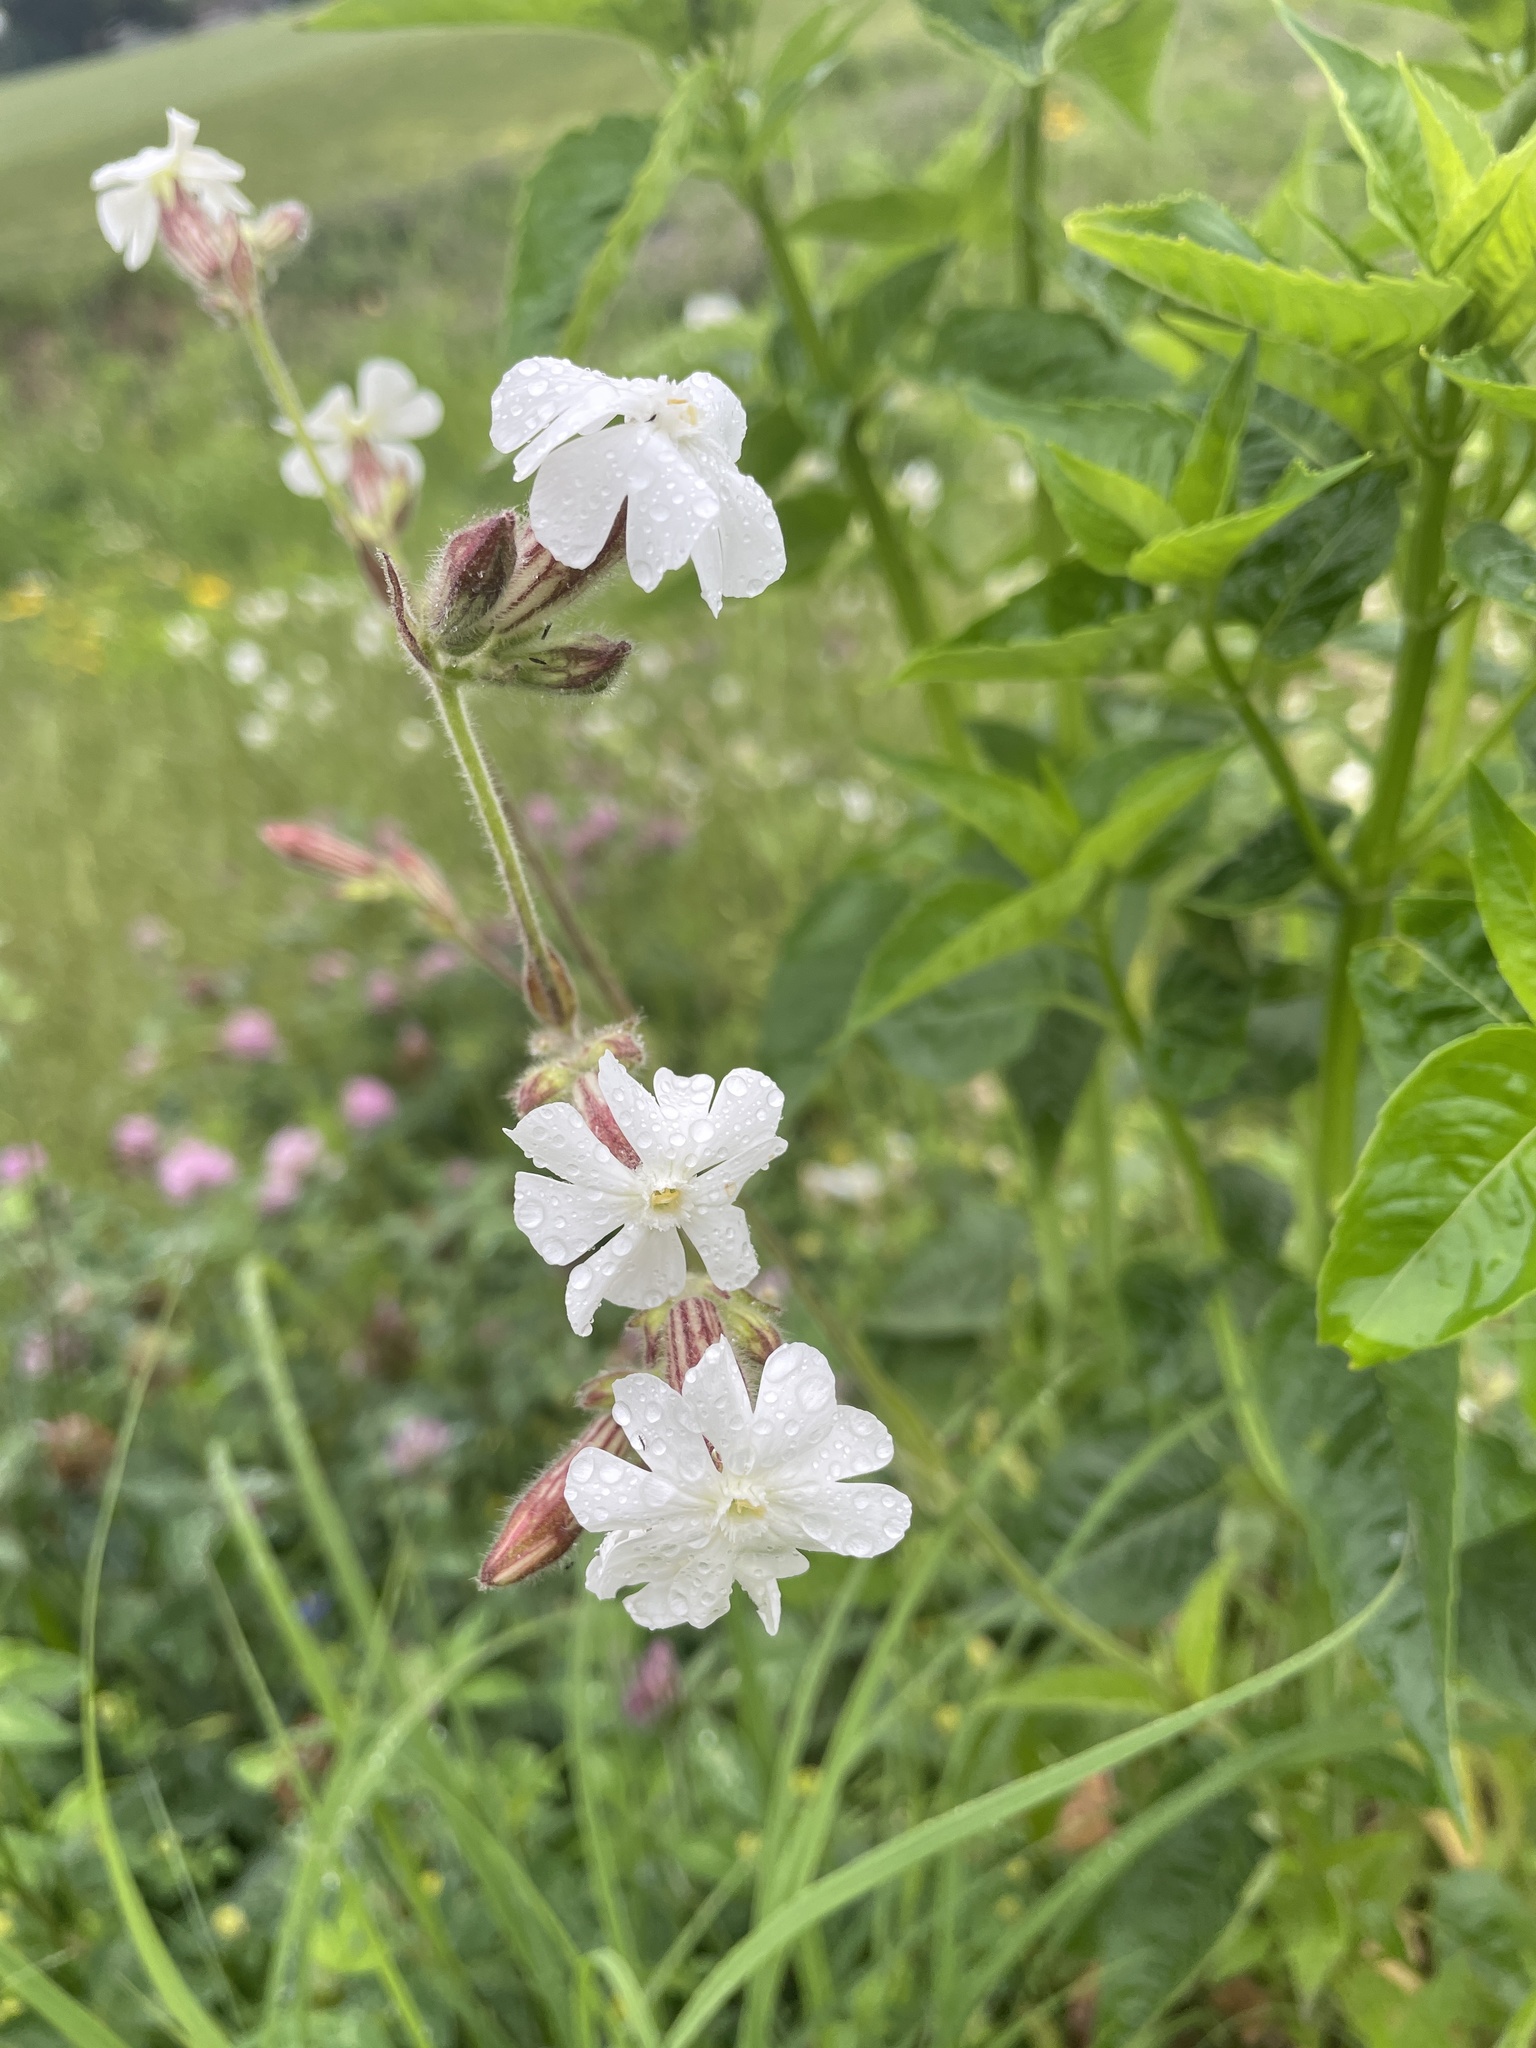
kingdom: Plantae
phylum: Tracheophyta
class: Magnoliopsida
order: Caryophyllales
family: Caryophyllaceae
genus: Silene
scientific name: Silene latifolia
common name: White campion
